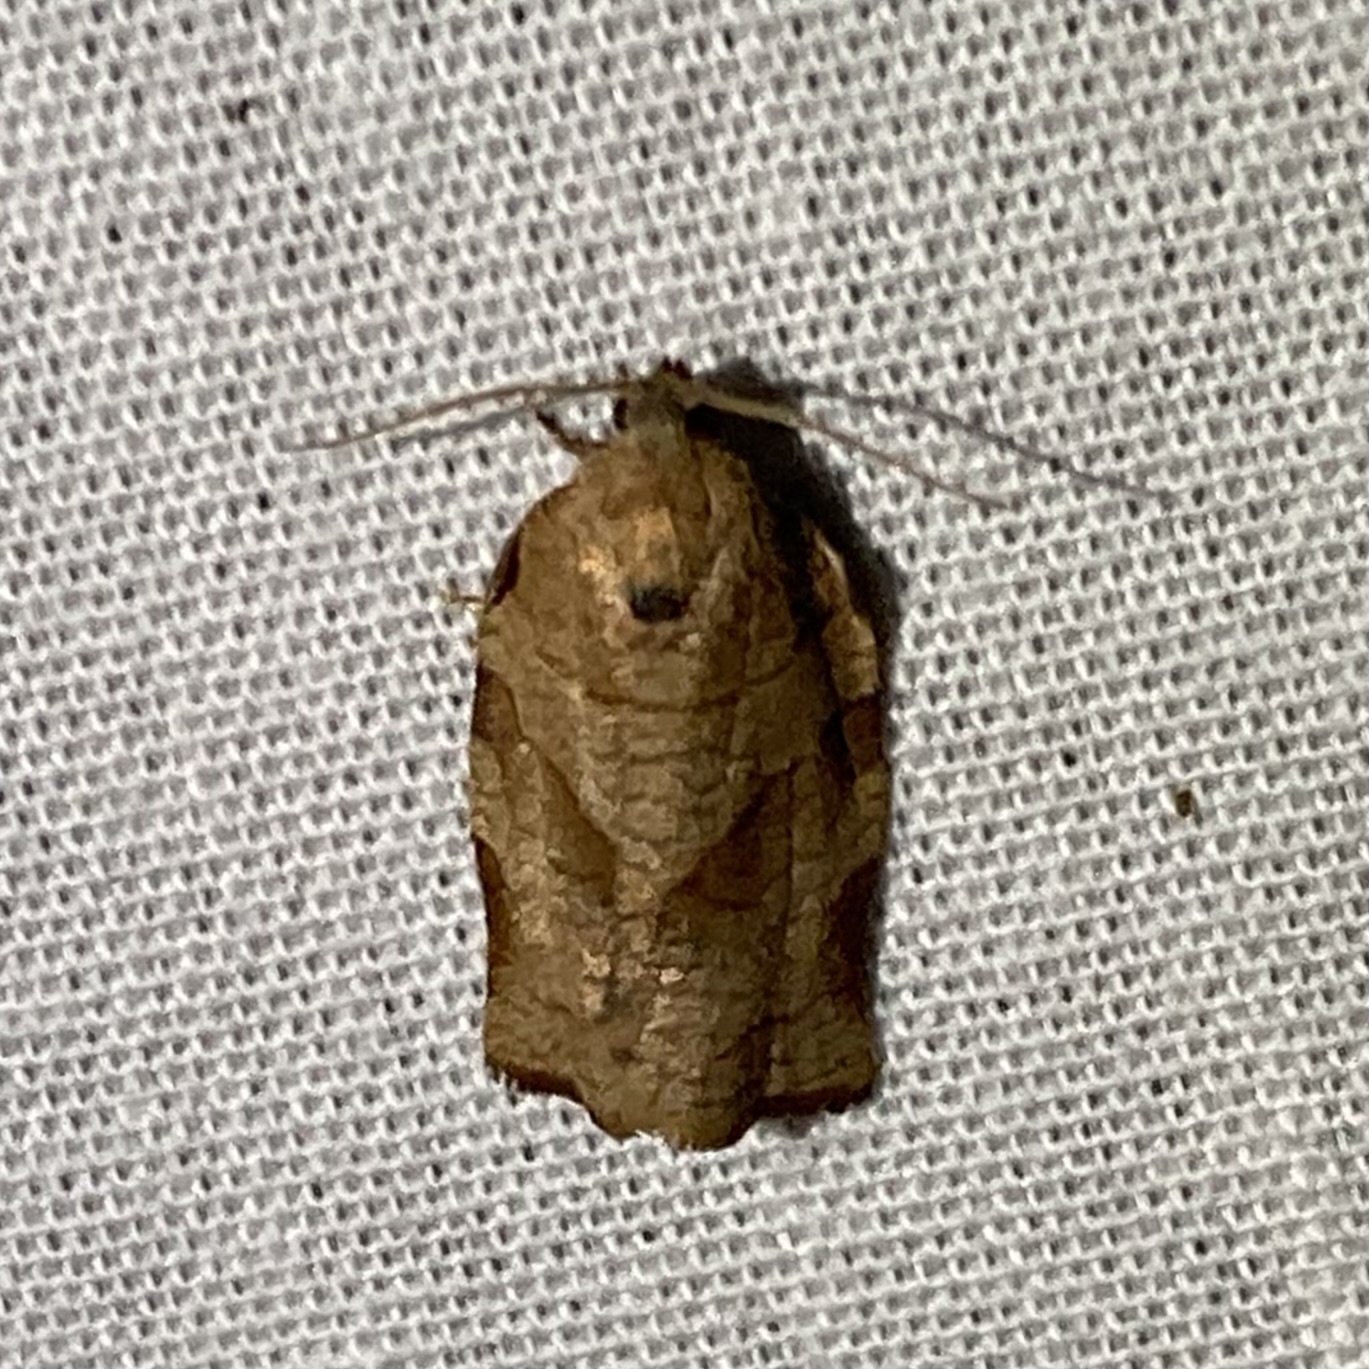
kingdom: Animalia
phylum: Arthropoda
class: Insecta
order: Lepidoptera
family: Tortricidae
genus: Choristoneura
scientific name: Choristoneura rosaceana
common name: Oblique-banded leafroller moth
